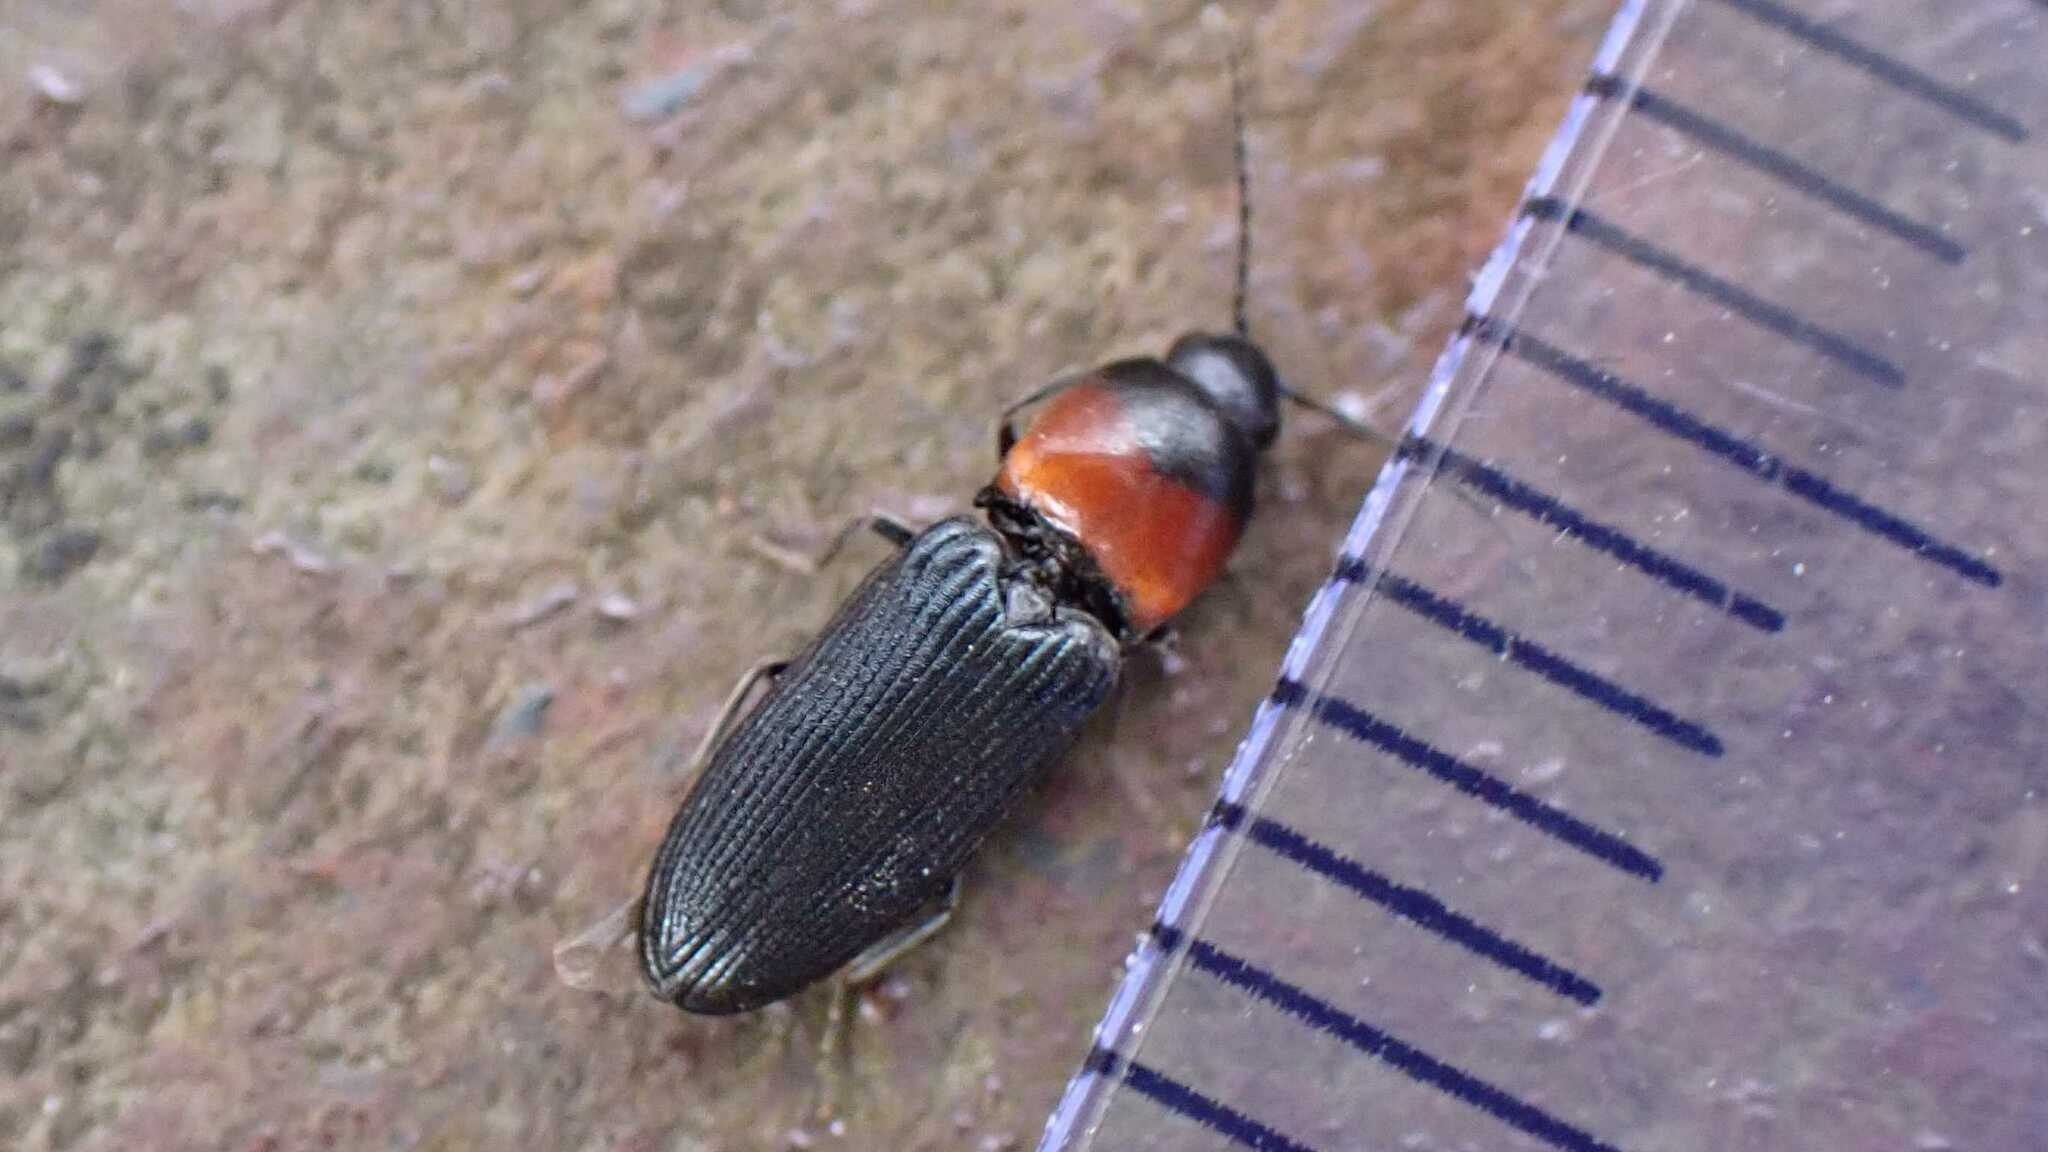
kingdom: Animalia
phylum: Arthropoda
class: Insecta
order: Coleoptera
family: Elateridae
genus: Cardiophorus
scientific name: Cardiophorus ruficollis
